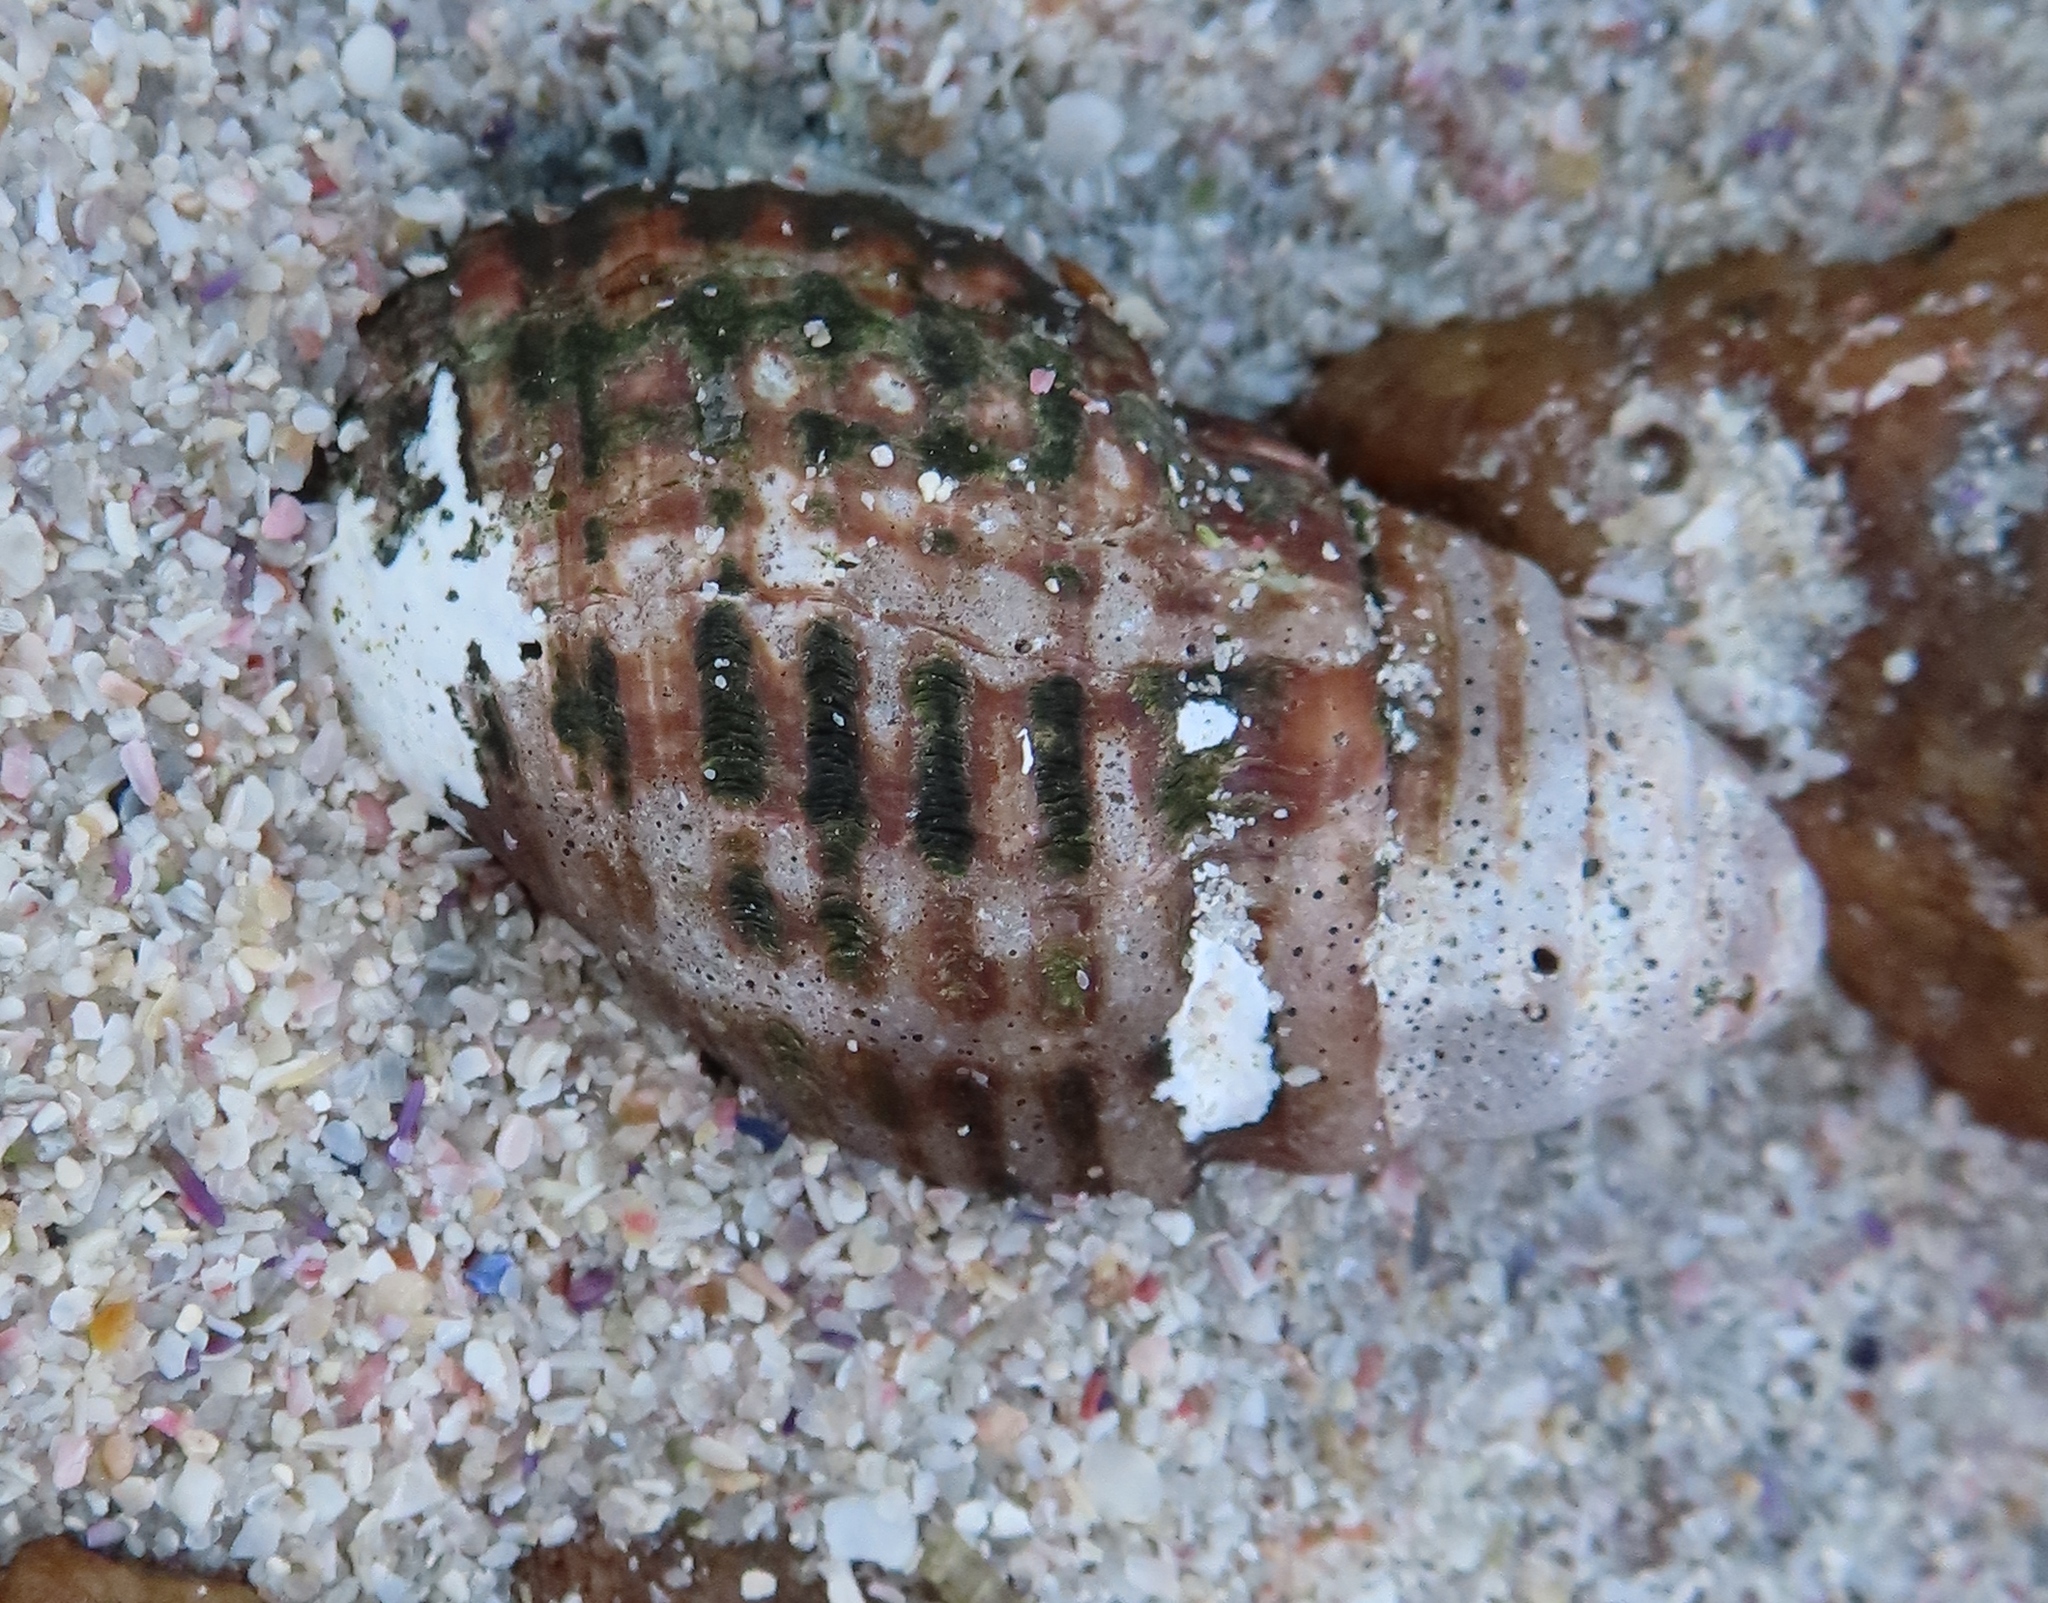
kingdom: Animalia
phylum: Mollusca
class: Gastropoda
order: Littorinimorpha
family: Cymatiidae
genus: Argobuccinum
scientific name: Argobuccinum pustulosum
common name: Pustular triton
